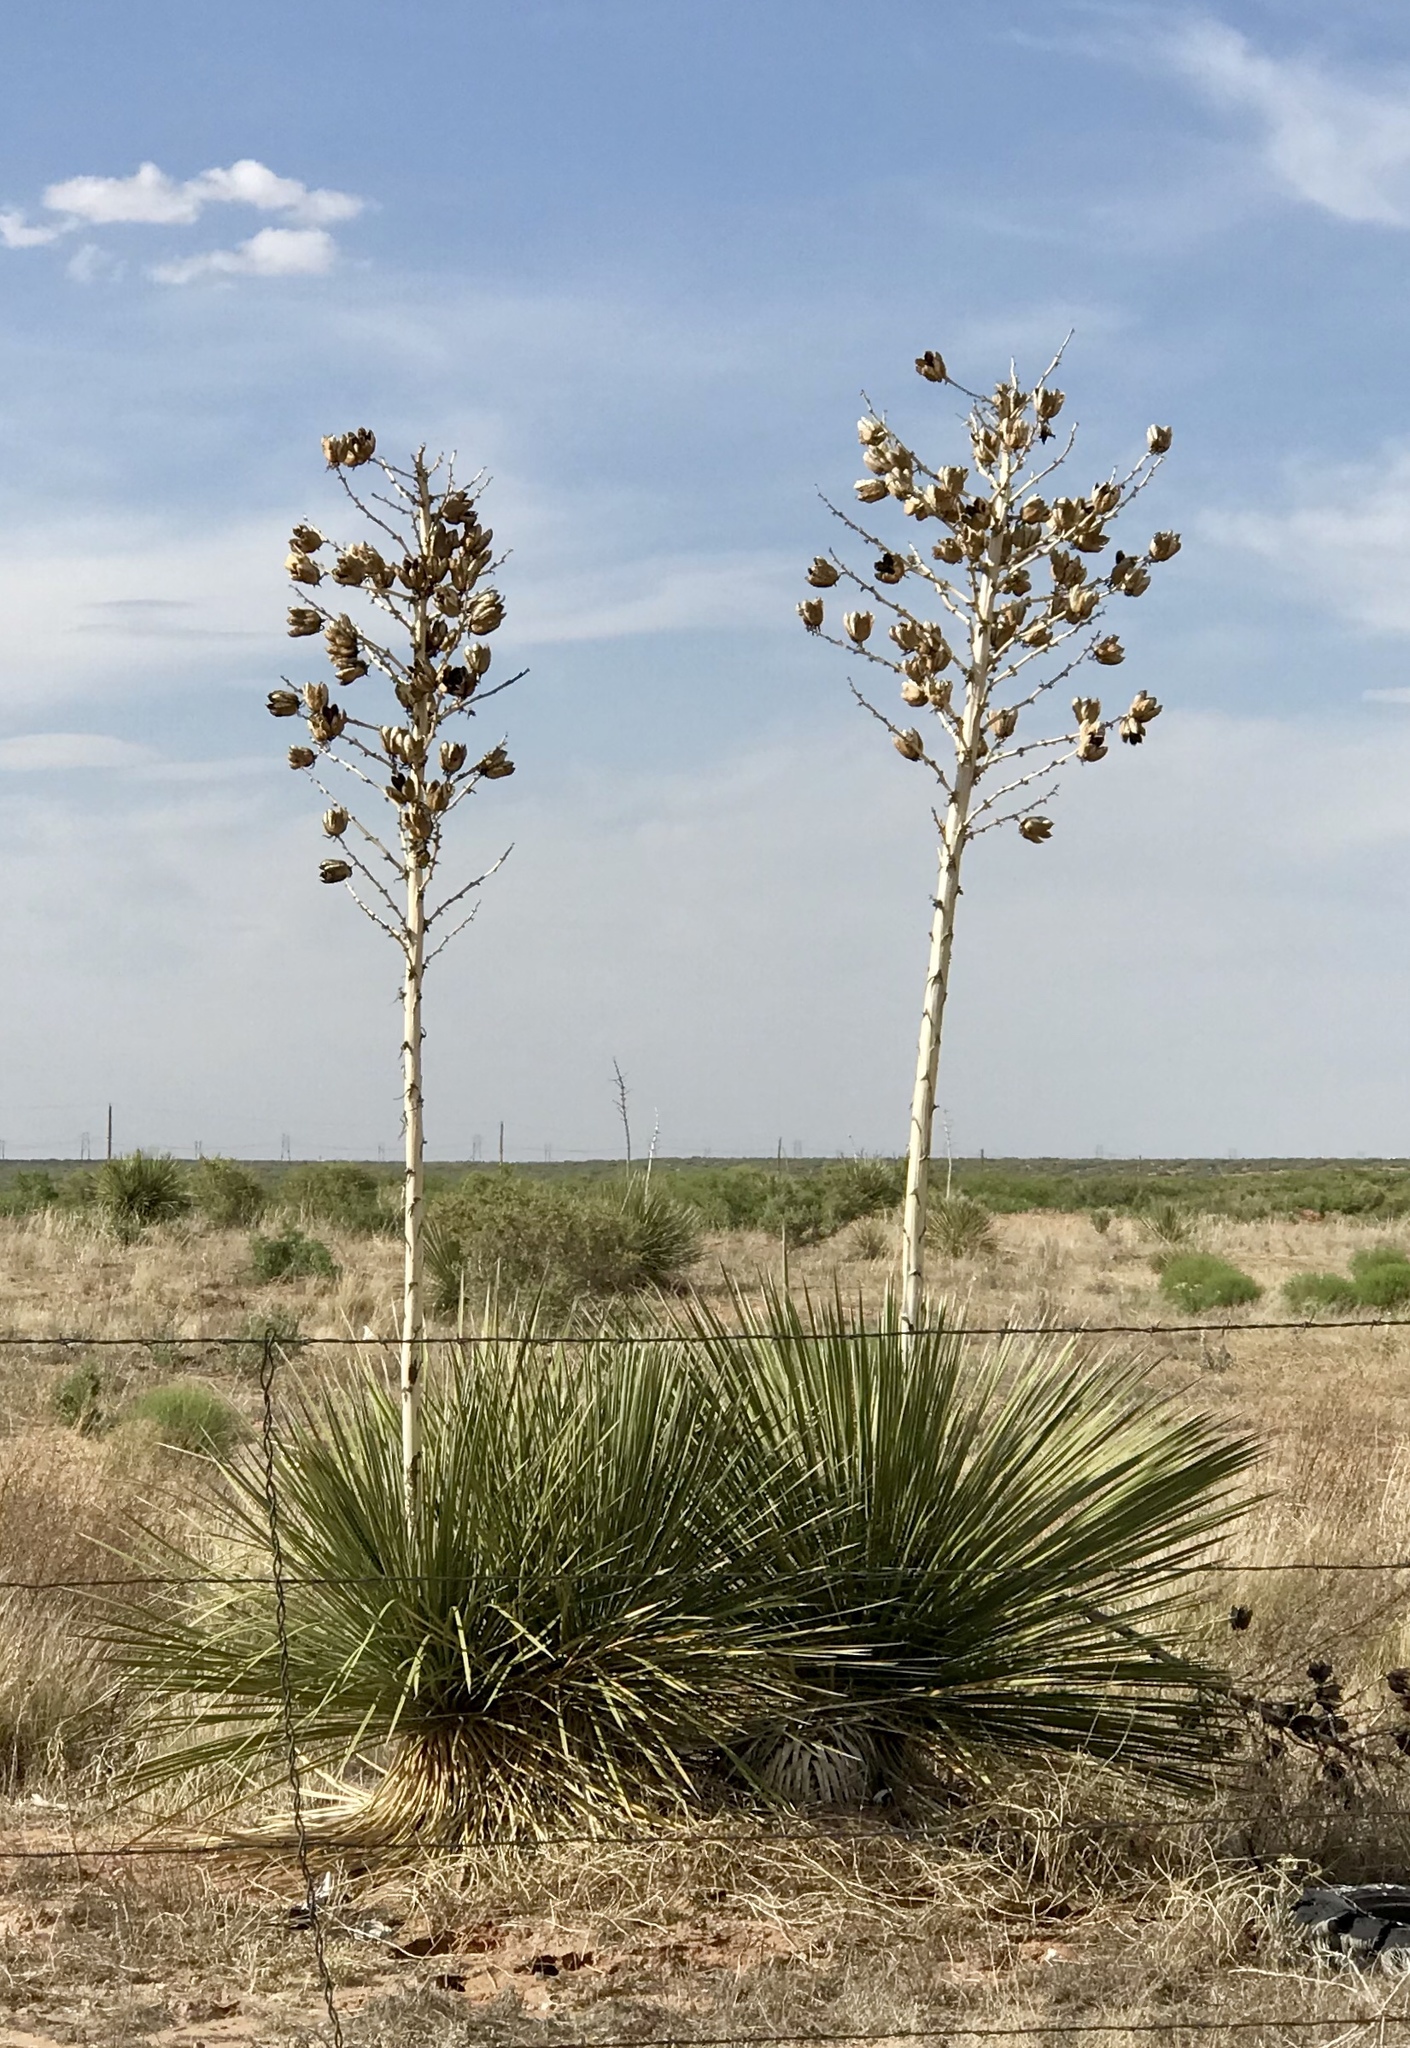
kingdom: Plantae
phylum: Tracheophyta
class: Liliopsida
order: Asparagales
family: Asparagaceae
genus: Yucca
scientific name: Yucca elata
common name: Palmella
